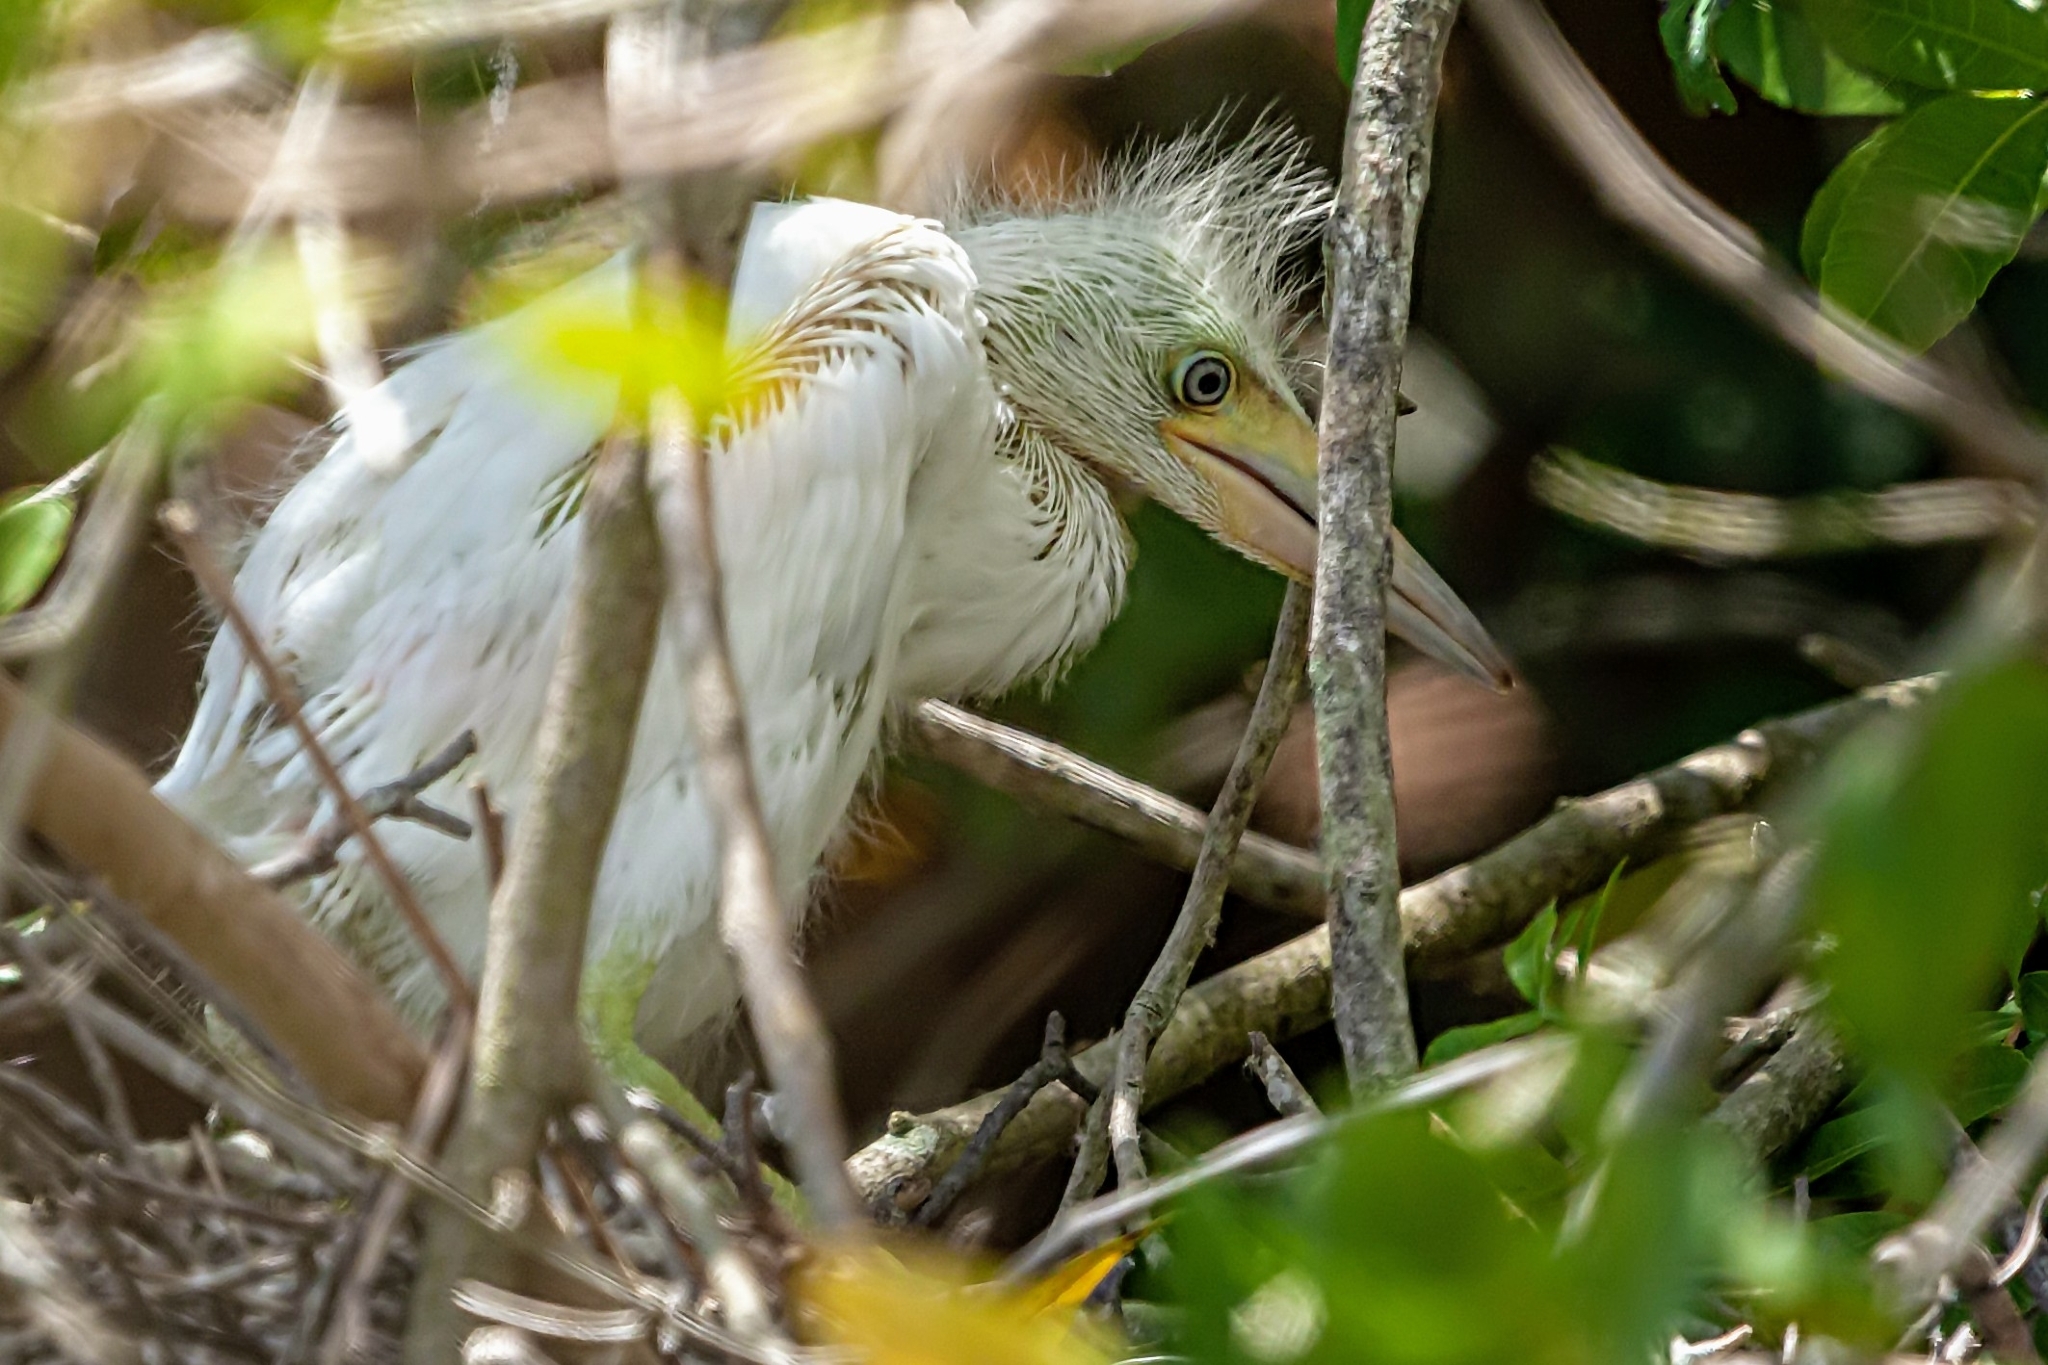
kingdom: Animalia
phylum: Chordata
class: Aves
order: Pelecaniformes
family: Ardeidae
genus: Egretta
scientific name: Egretta caerulea
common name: Little blue heron
